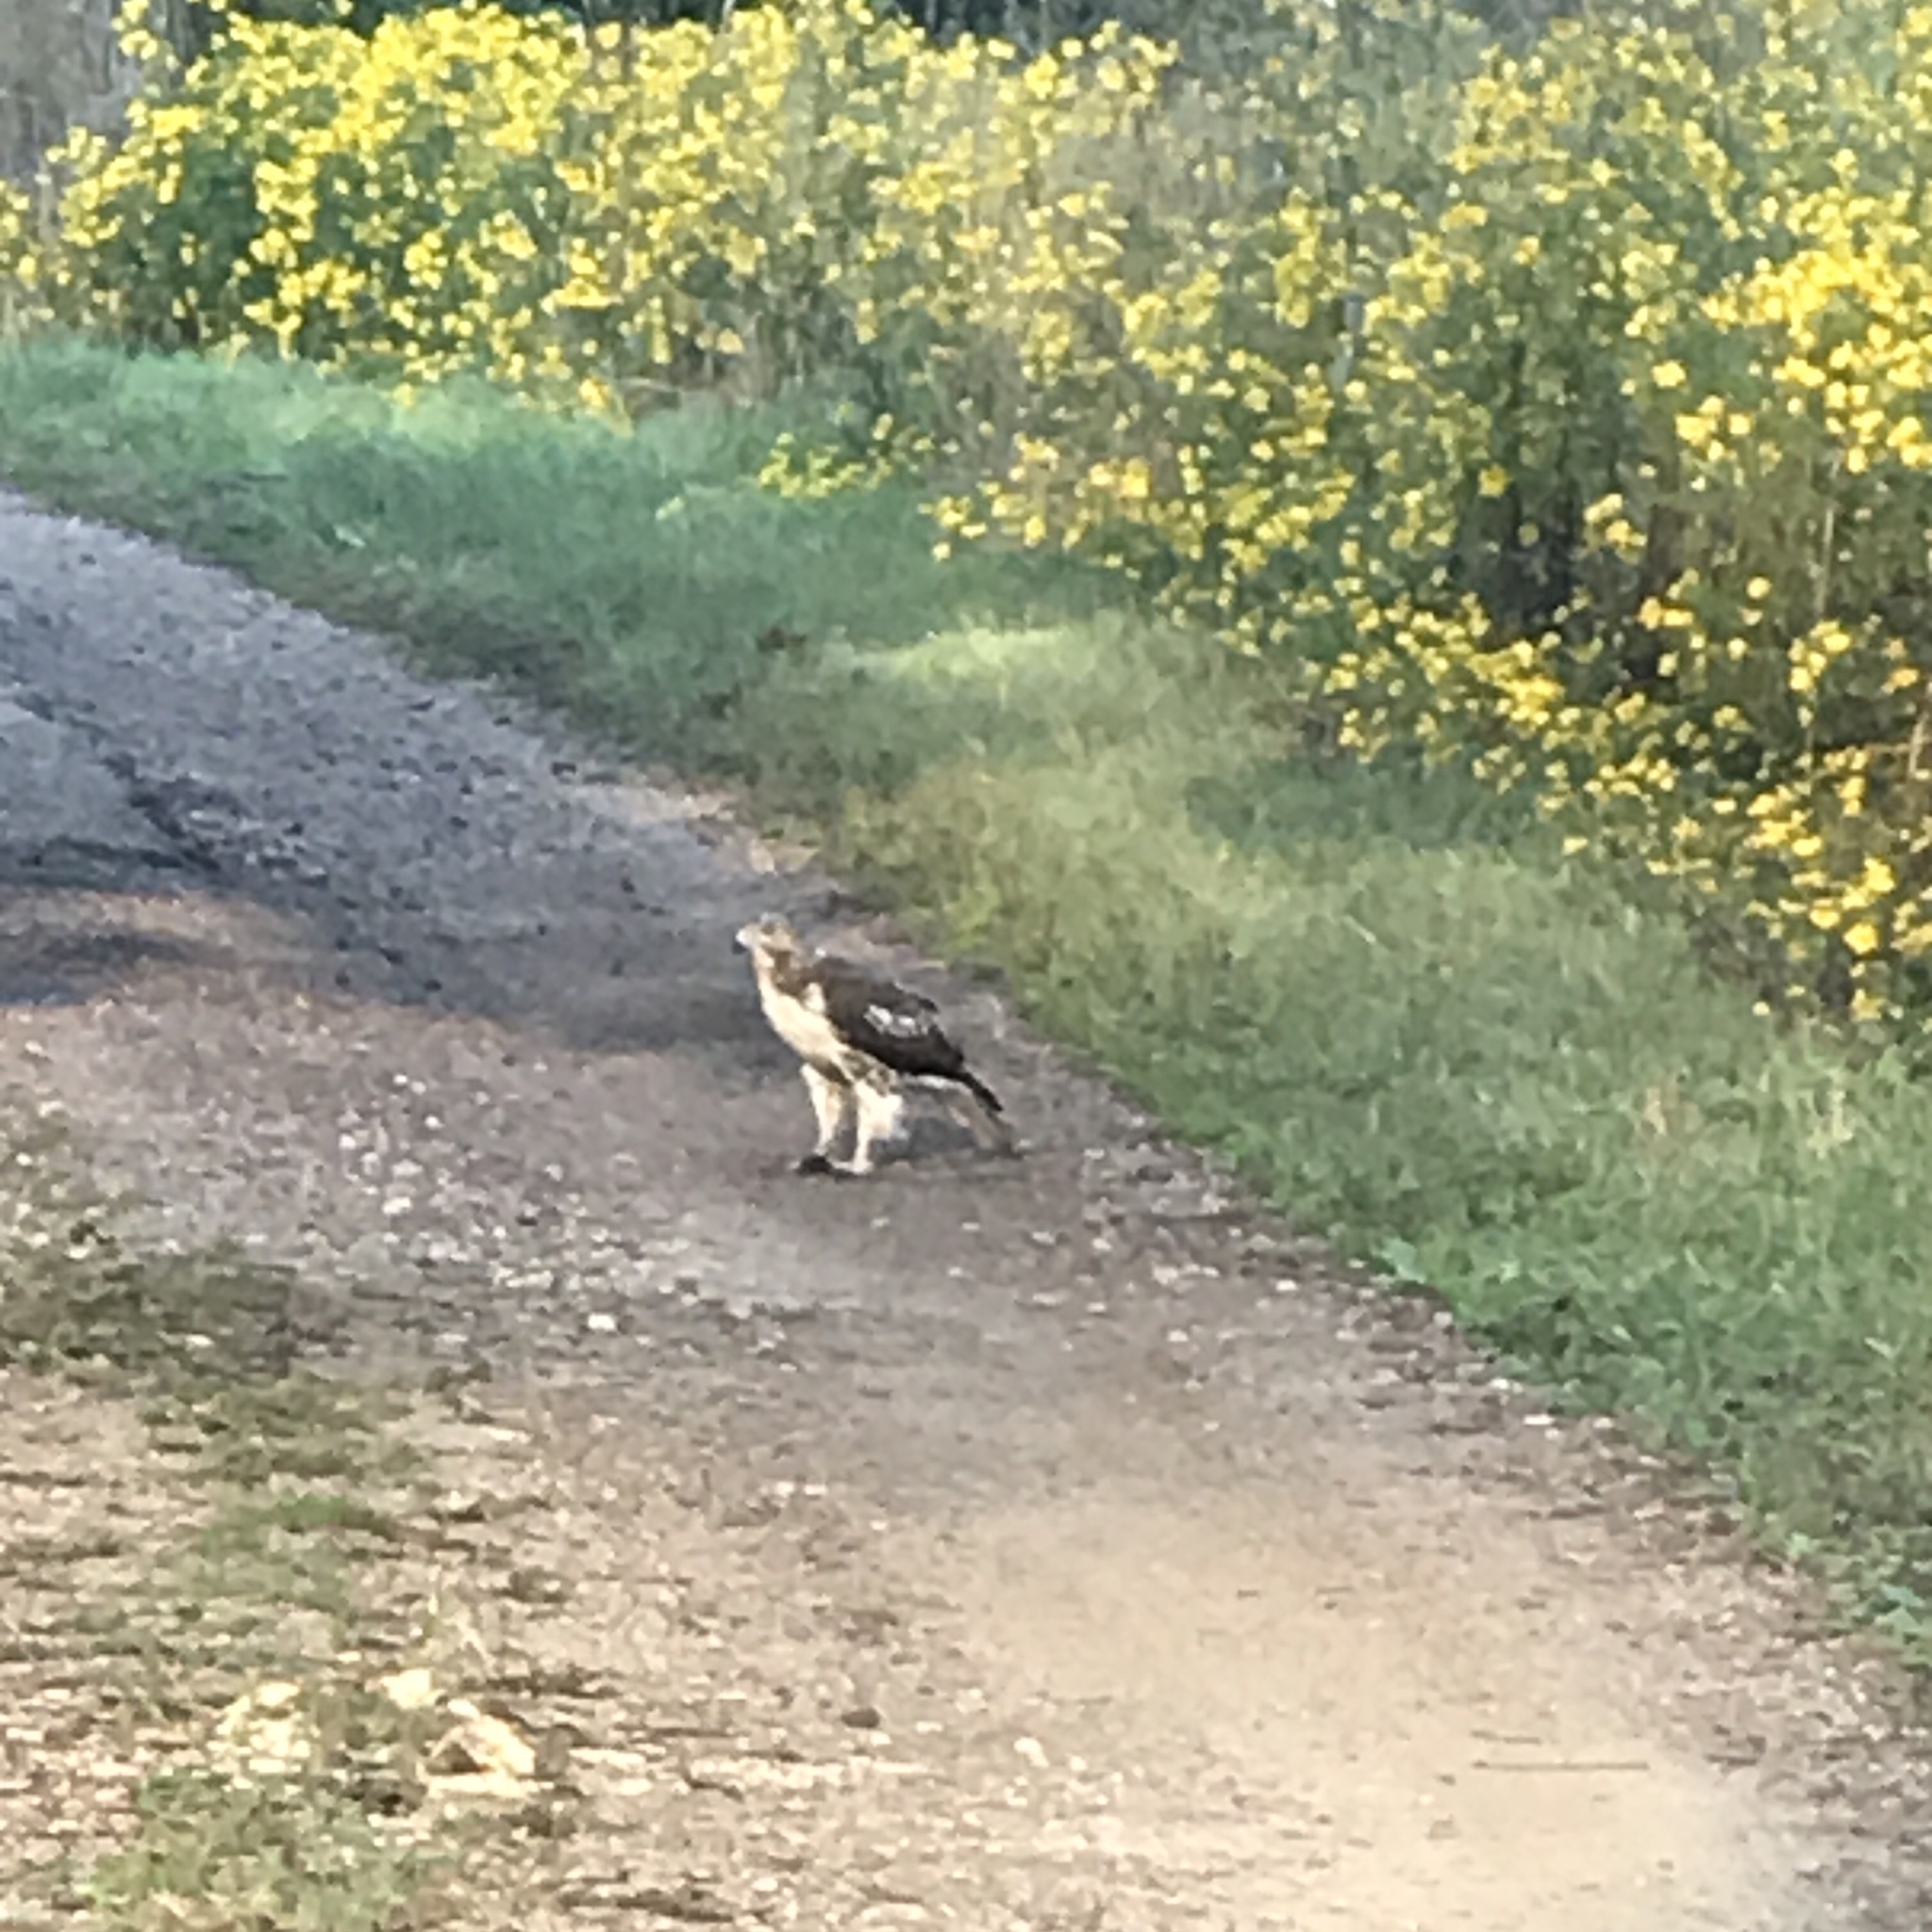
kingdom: Animalia
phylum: Chordata
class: Aves
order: Accipitriformes
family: Accipitridae
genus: Buteo
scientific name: Buteo jamaicensis
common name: Red-tailed hawk
